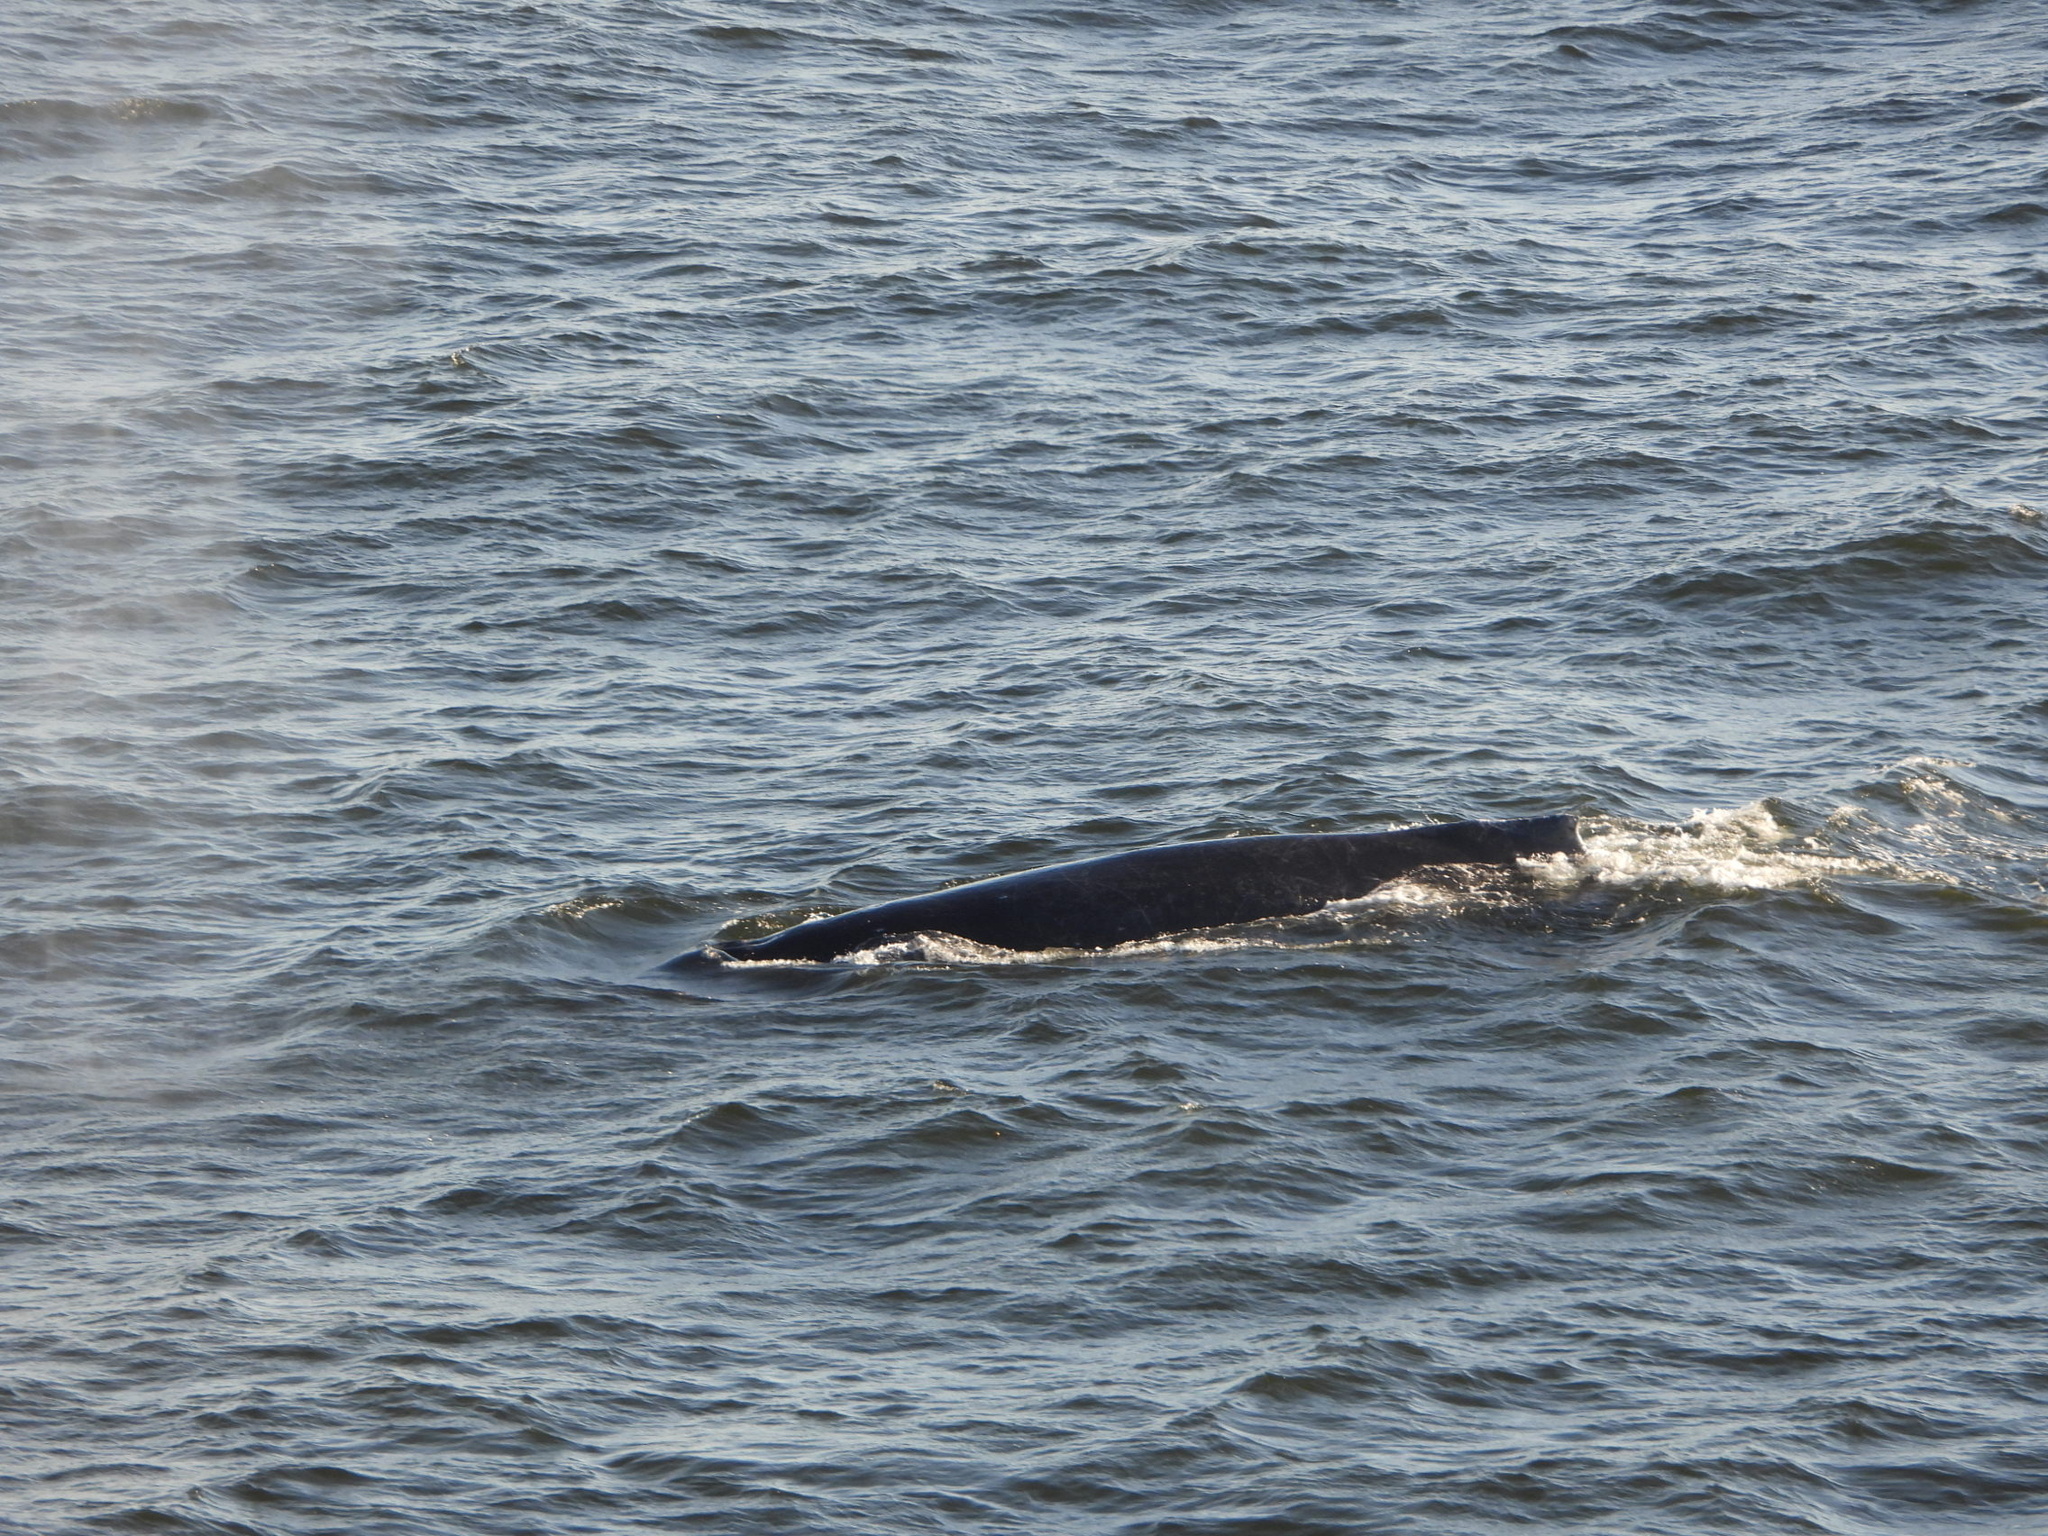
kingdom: Animalia
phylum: Chordata
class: Mammalia
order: Cetacea
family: Balaenopteridae
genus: Megaptera
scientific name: Megaptera novaeangliae
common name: Humpback whale
